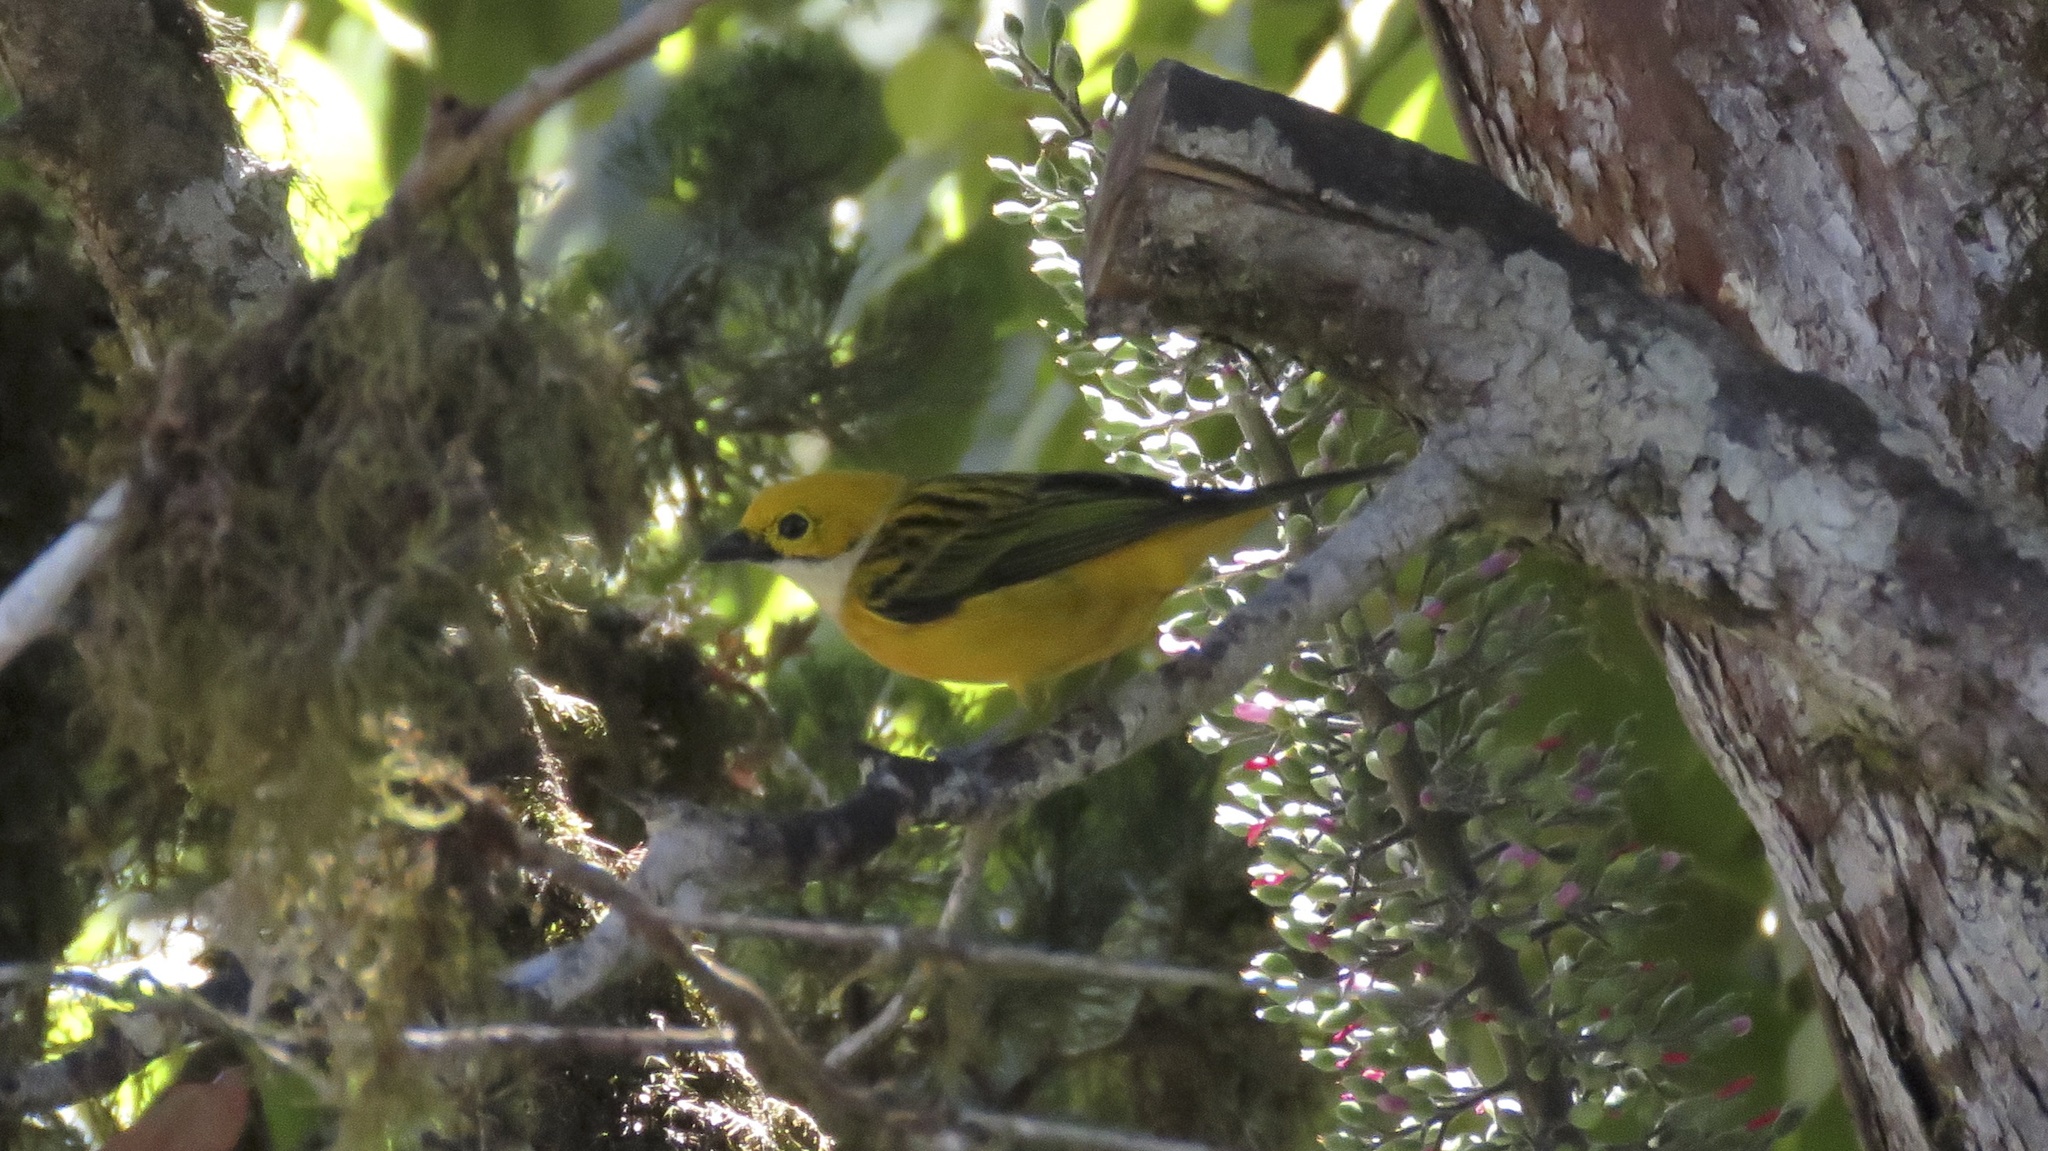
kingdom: Animalia
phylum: Chordata
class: Aves
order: Passeriformes
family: Thraupidae
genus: Tangara
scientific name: Tangara icterocephala
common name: Silver-throated tanager
